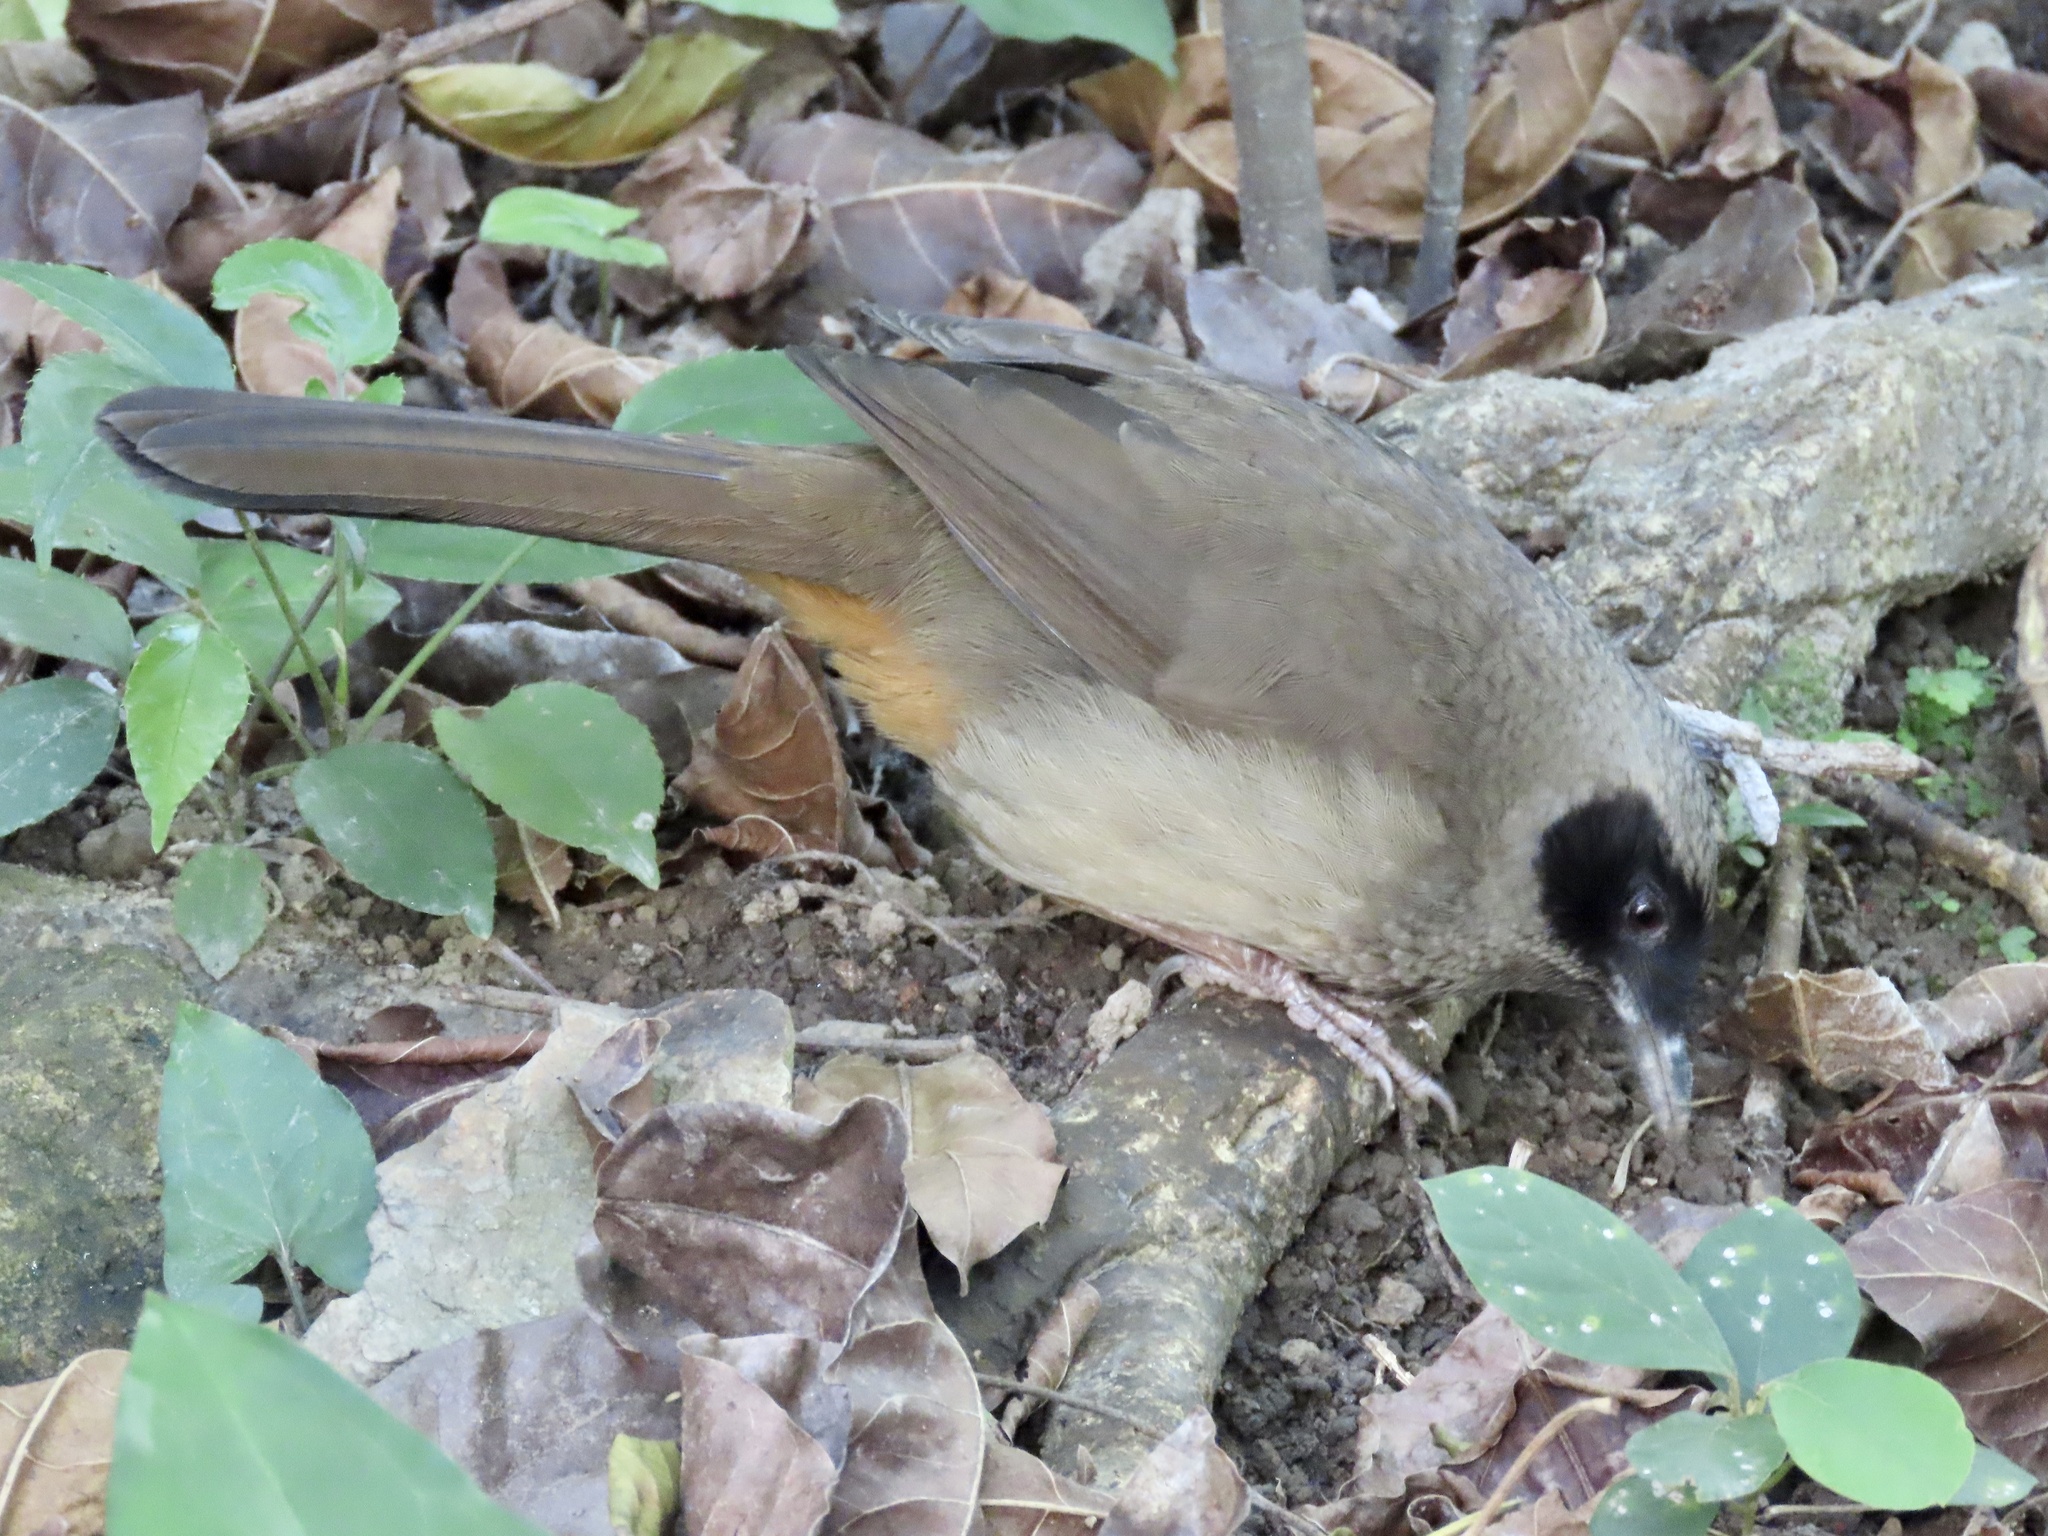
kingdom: Animalia
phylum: Chordata
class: Aves
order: Passeriformes
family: Leiothrichidae
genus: Garrulax
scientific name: Garrulax perspicillatus
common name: Masked laughingthrush
